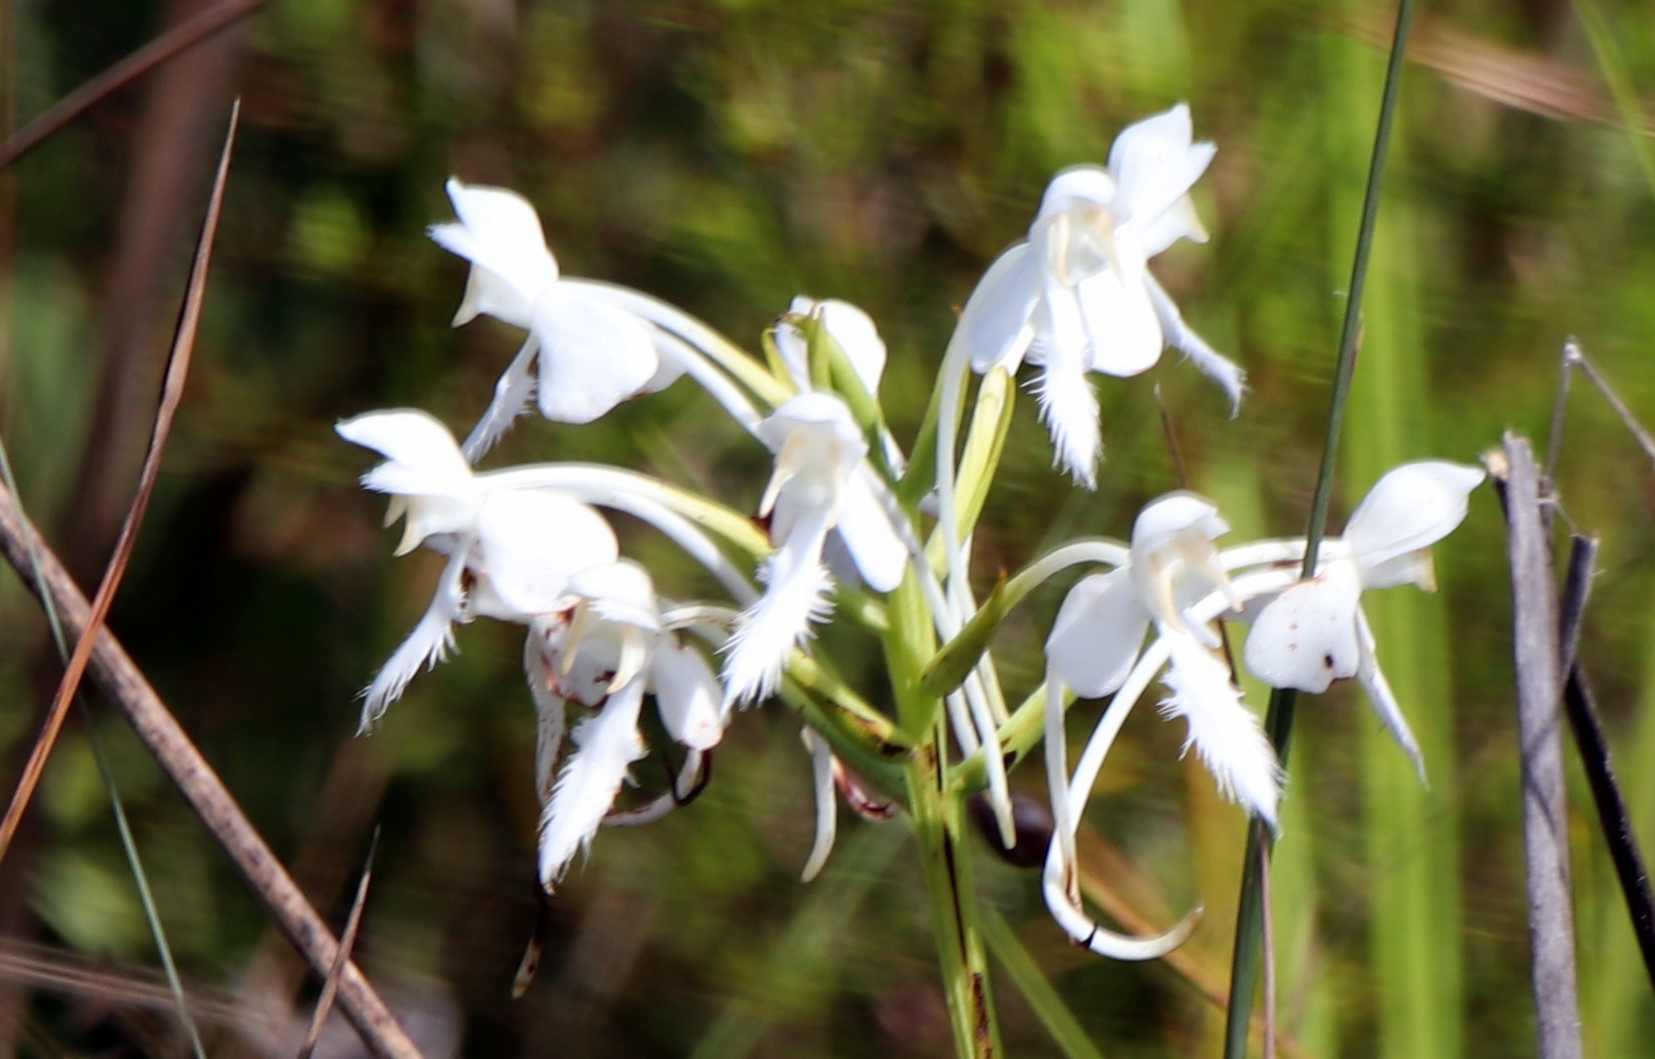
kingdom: Plantae
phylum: Tracheophyta
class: Liliopsida
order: Asparagales
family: Orchidaceae
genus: Platanthera
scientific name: Platanthera blephariglottis
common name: White fringed orchid
